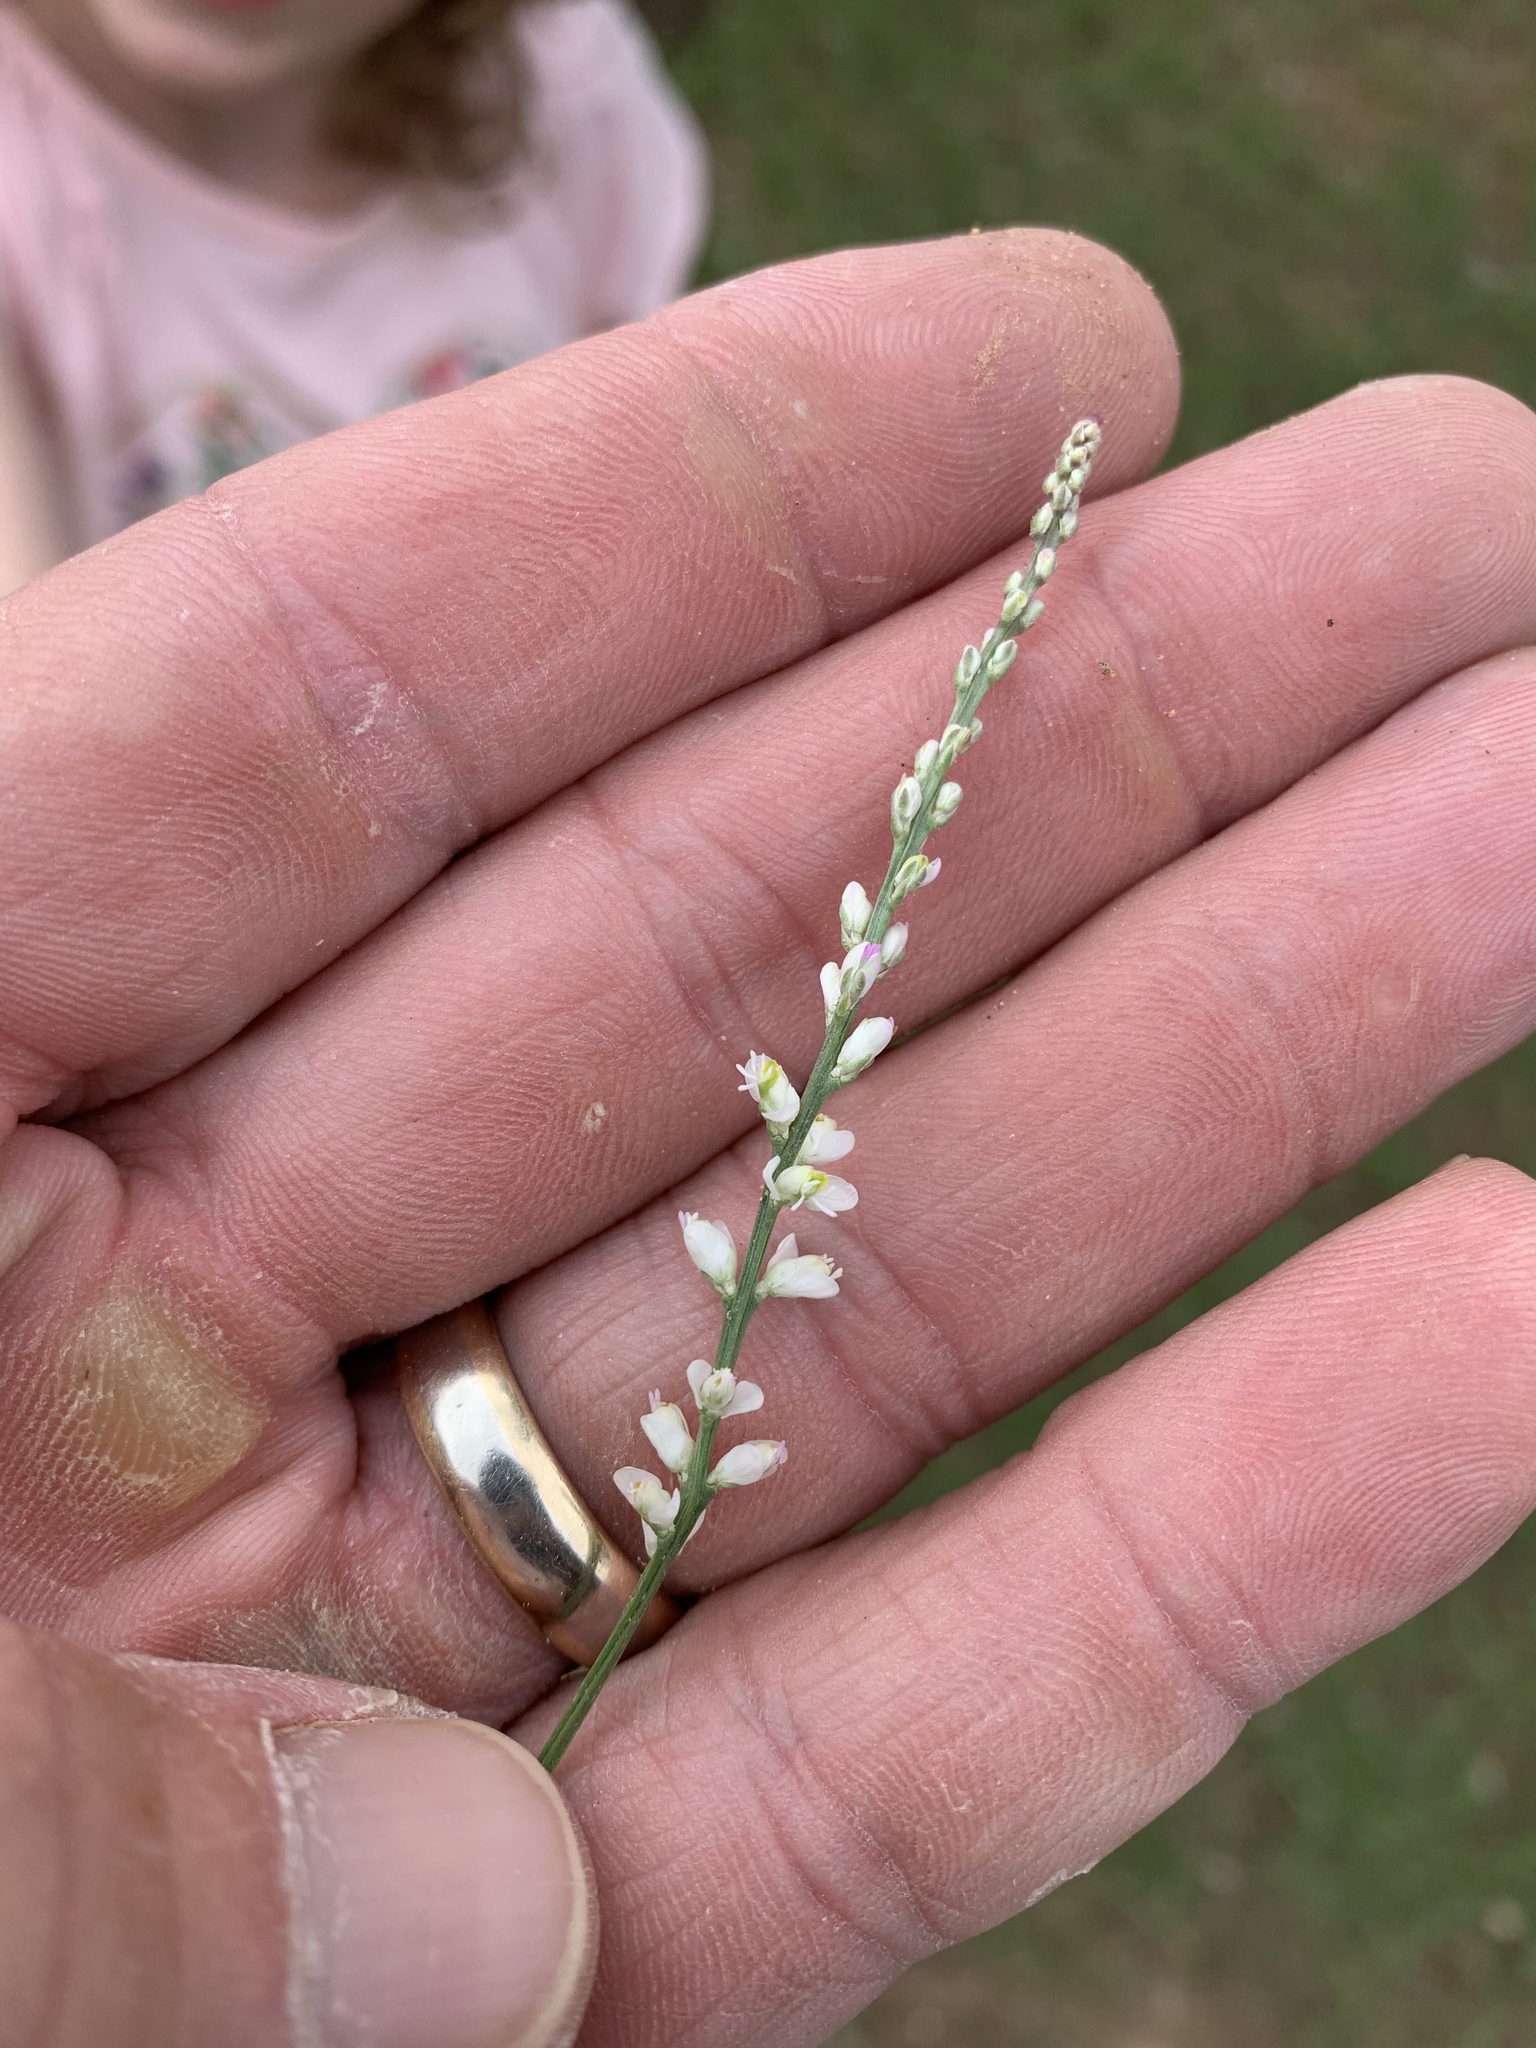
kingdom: Plantae
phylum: Tracheophyta
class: Magnoliopsida
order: Fabales
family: Polygalaceae
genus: Polygala
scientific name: Polygala alba
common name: White milkwort
